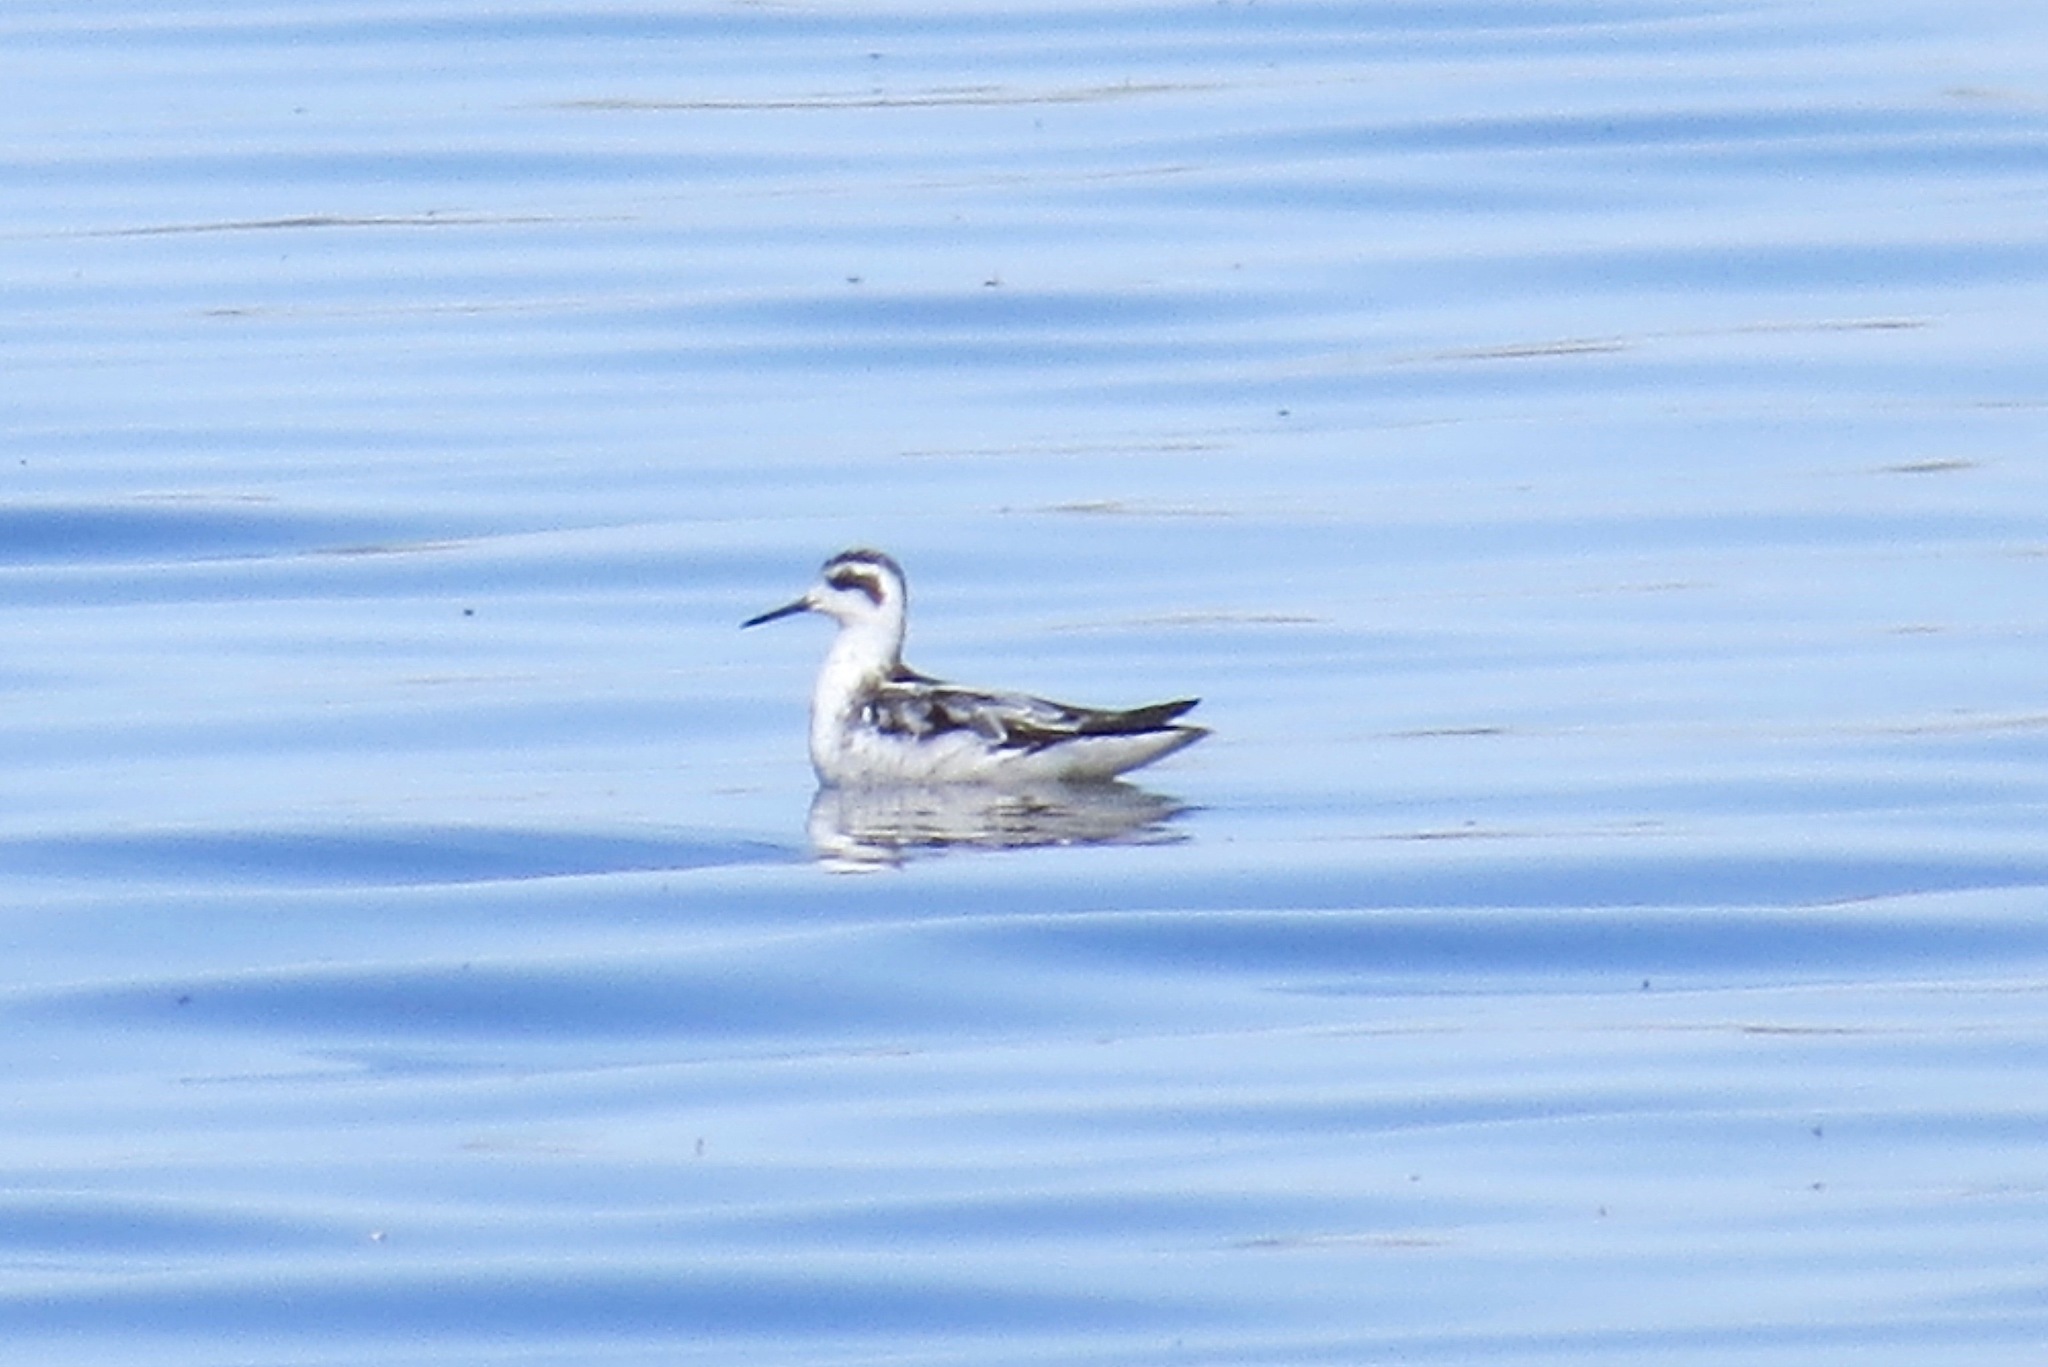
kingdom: Animalia
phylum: Chordata
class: Aves
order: Charadriiformes
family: Scolopacidae
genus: Phalaropus
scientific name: Phalaropus lobatus
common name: Red-necked phalarope
